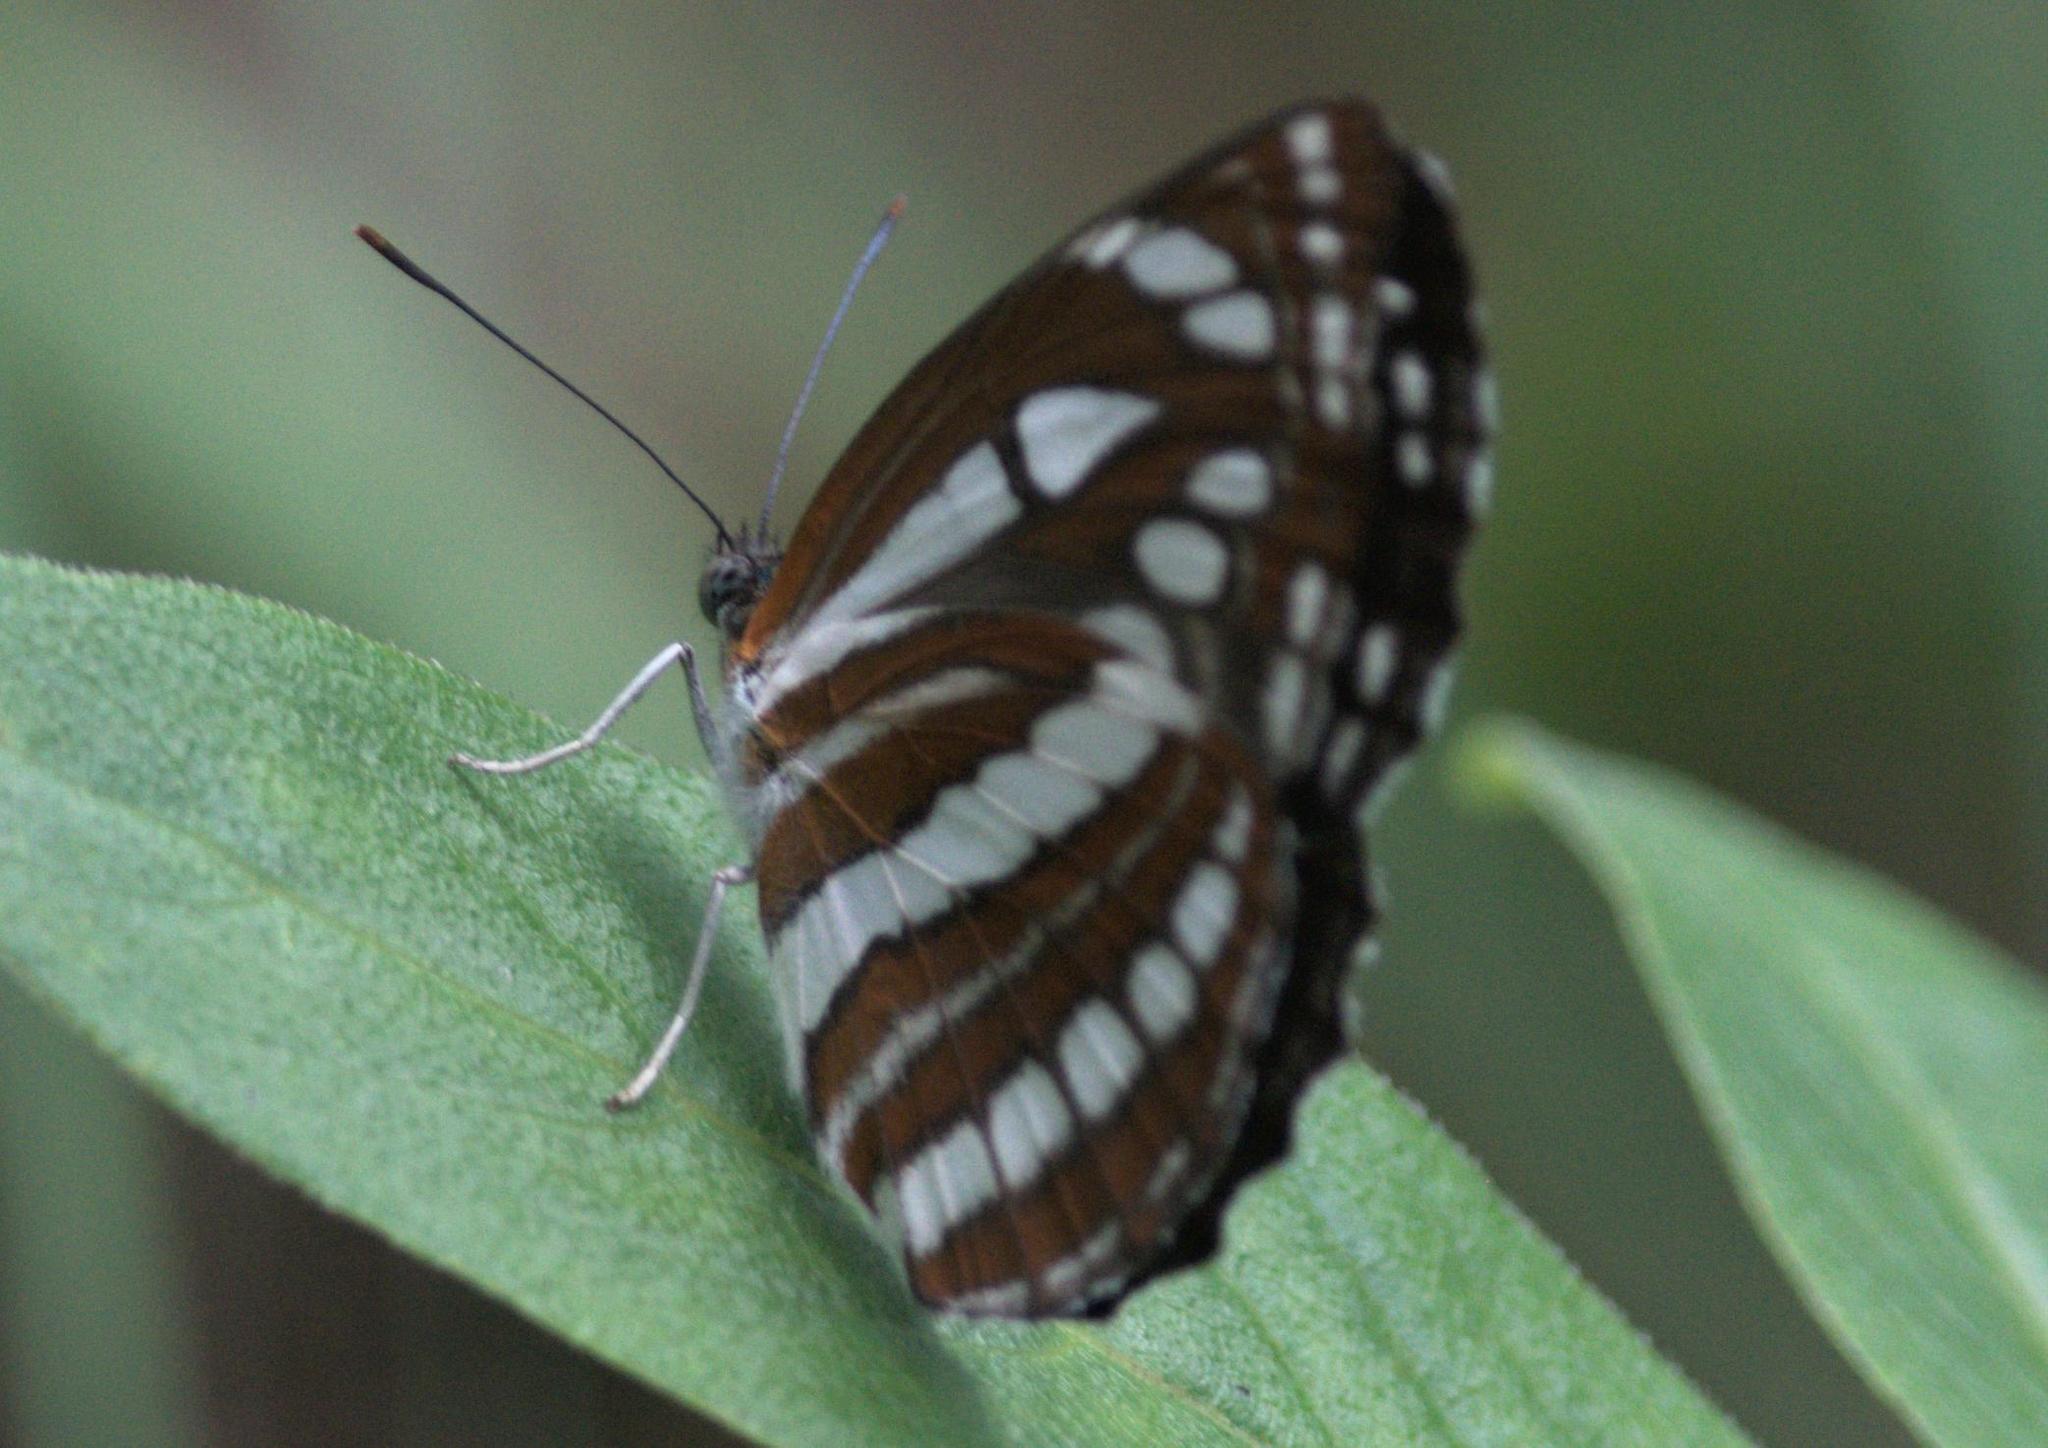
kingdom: Animalia
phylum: Arthropoda
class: Insecta
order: Lepidoptera
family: Nymphalidae
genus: Neptis
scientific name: Neptis hylas
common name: Common sailer
